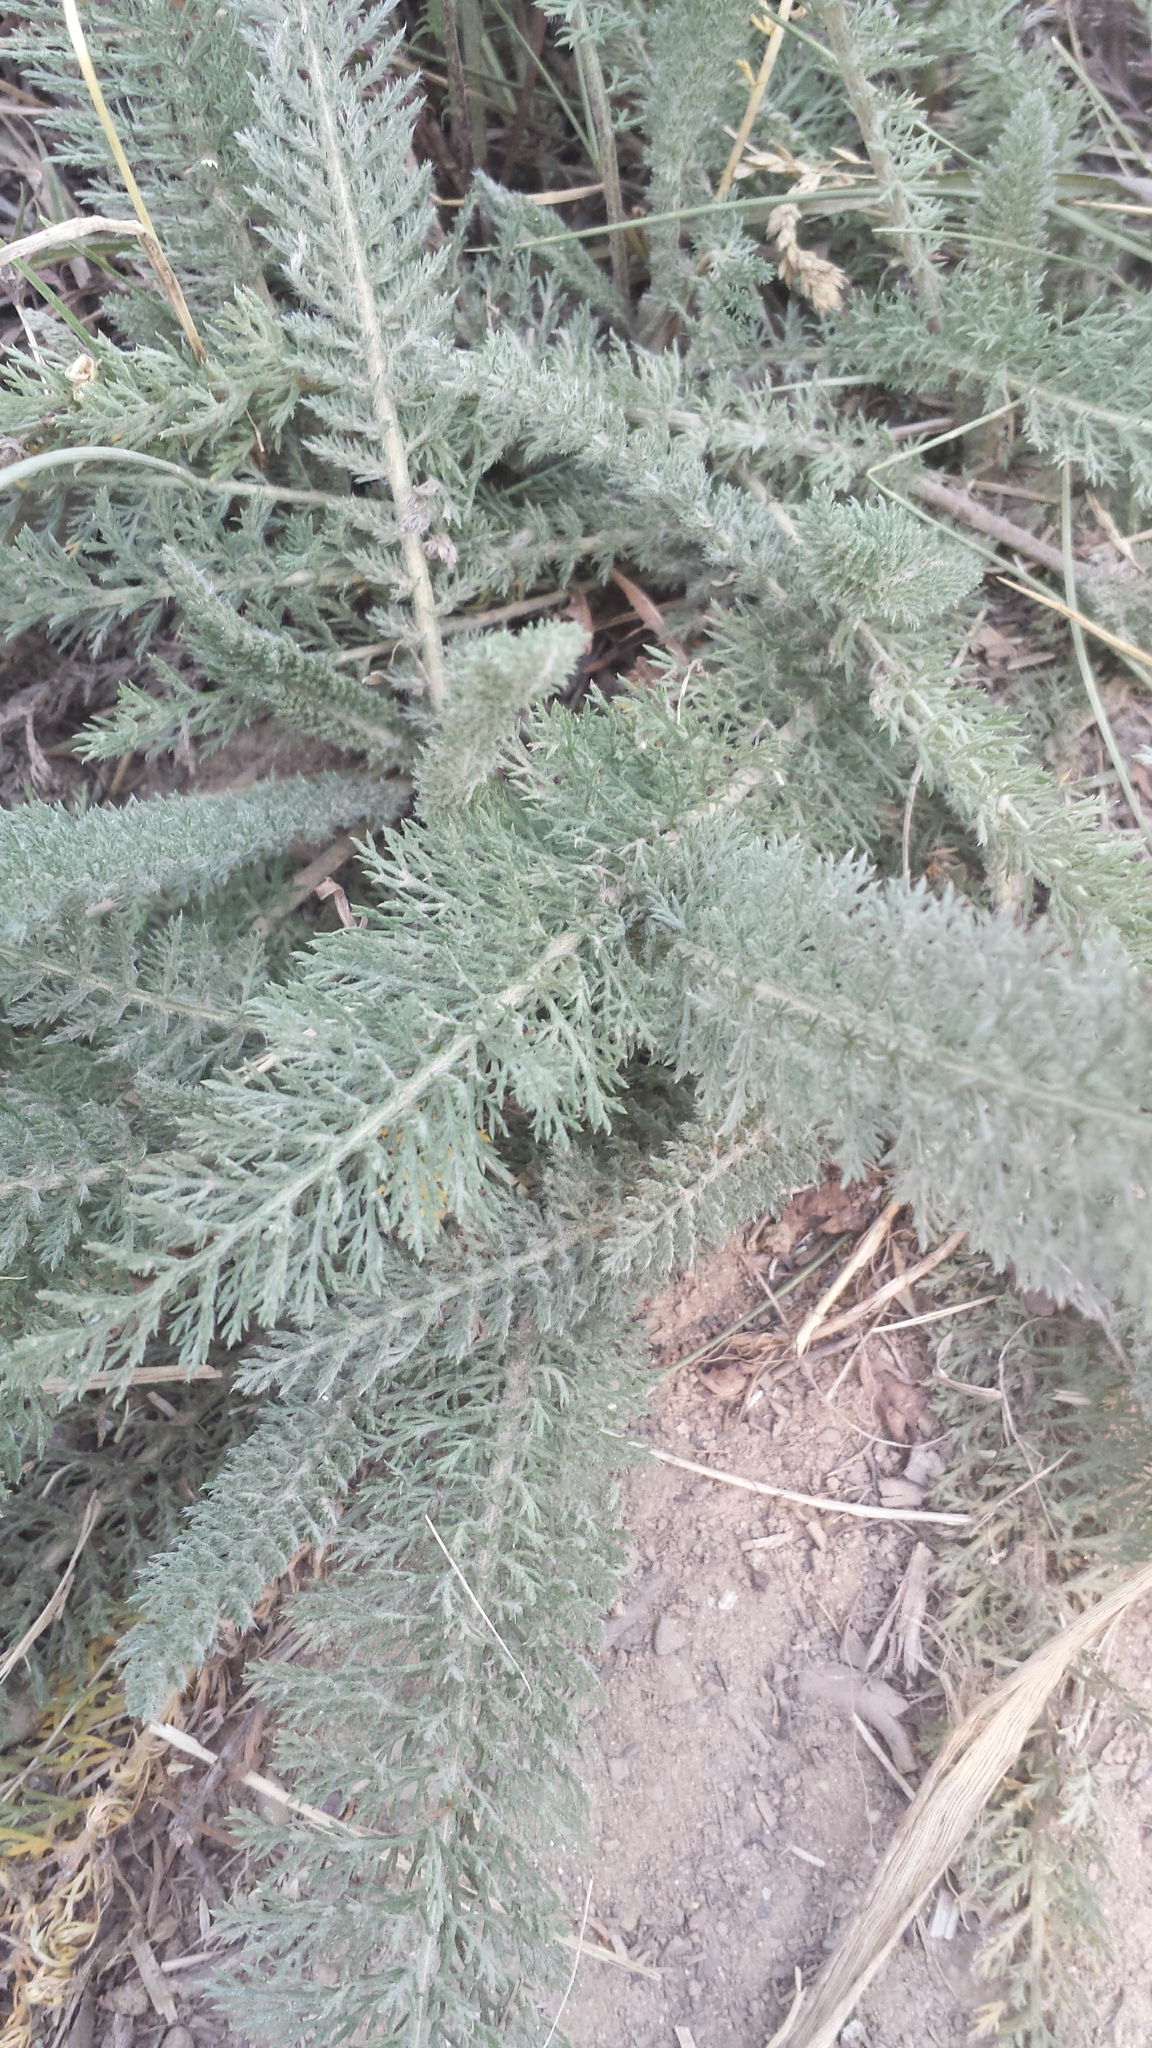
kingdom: Plantae
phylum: Tracheophyta
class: Magnoliopsida
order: Asterales
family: Asteraceae
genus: Achillea
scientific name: Achillea millefolium
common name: Yarrow
